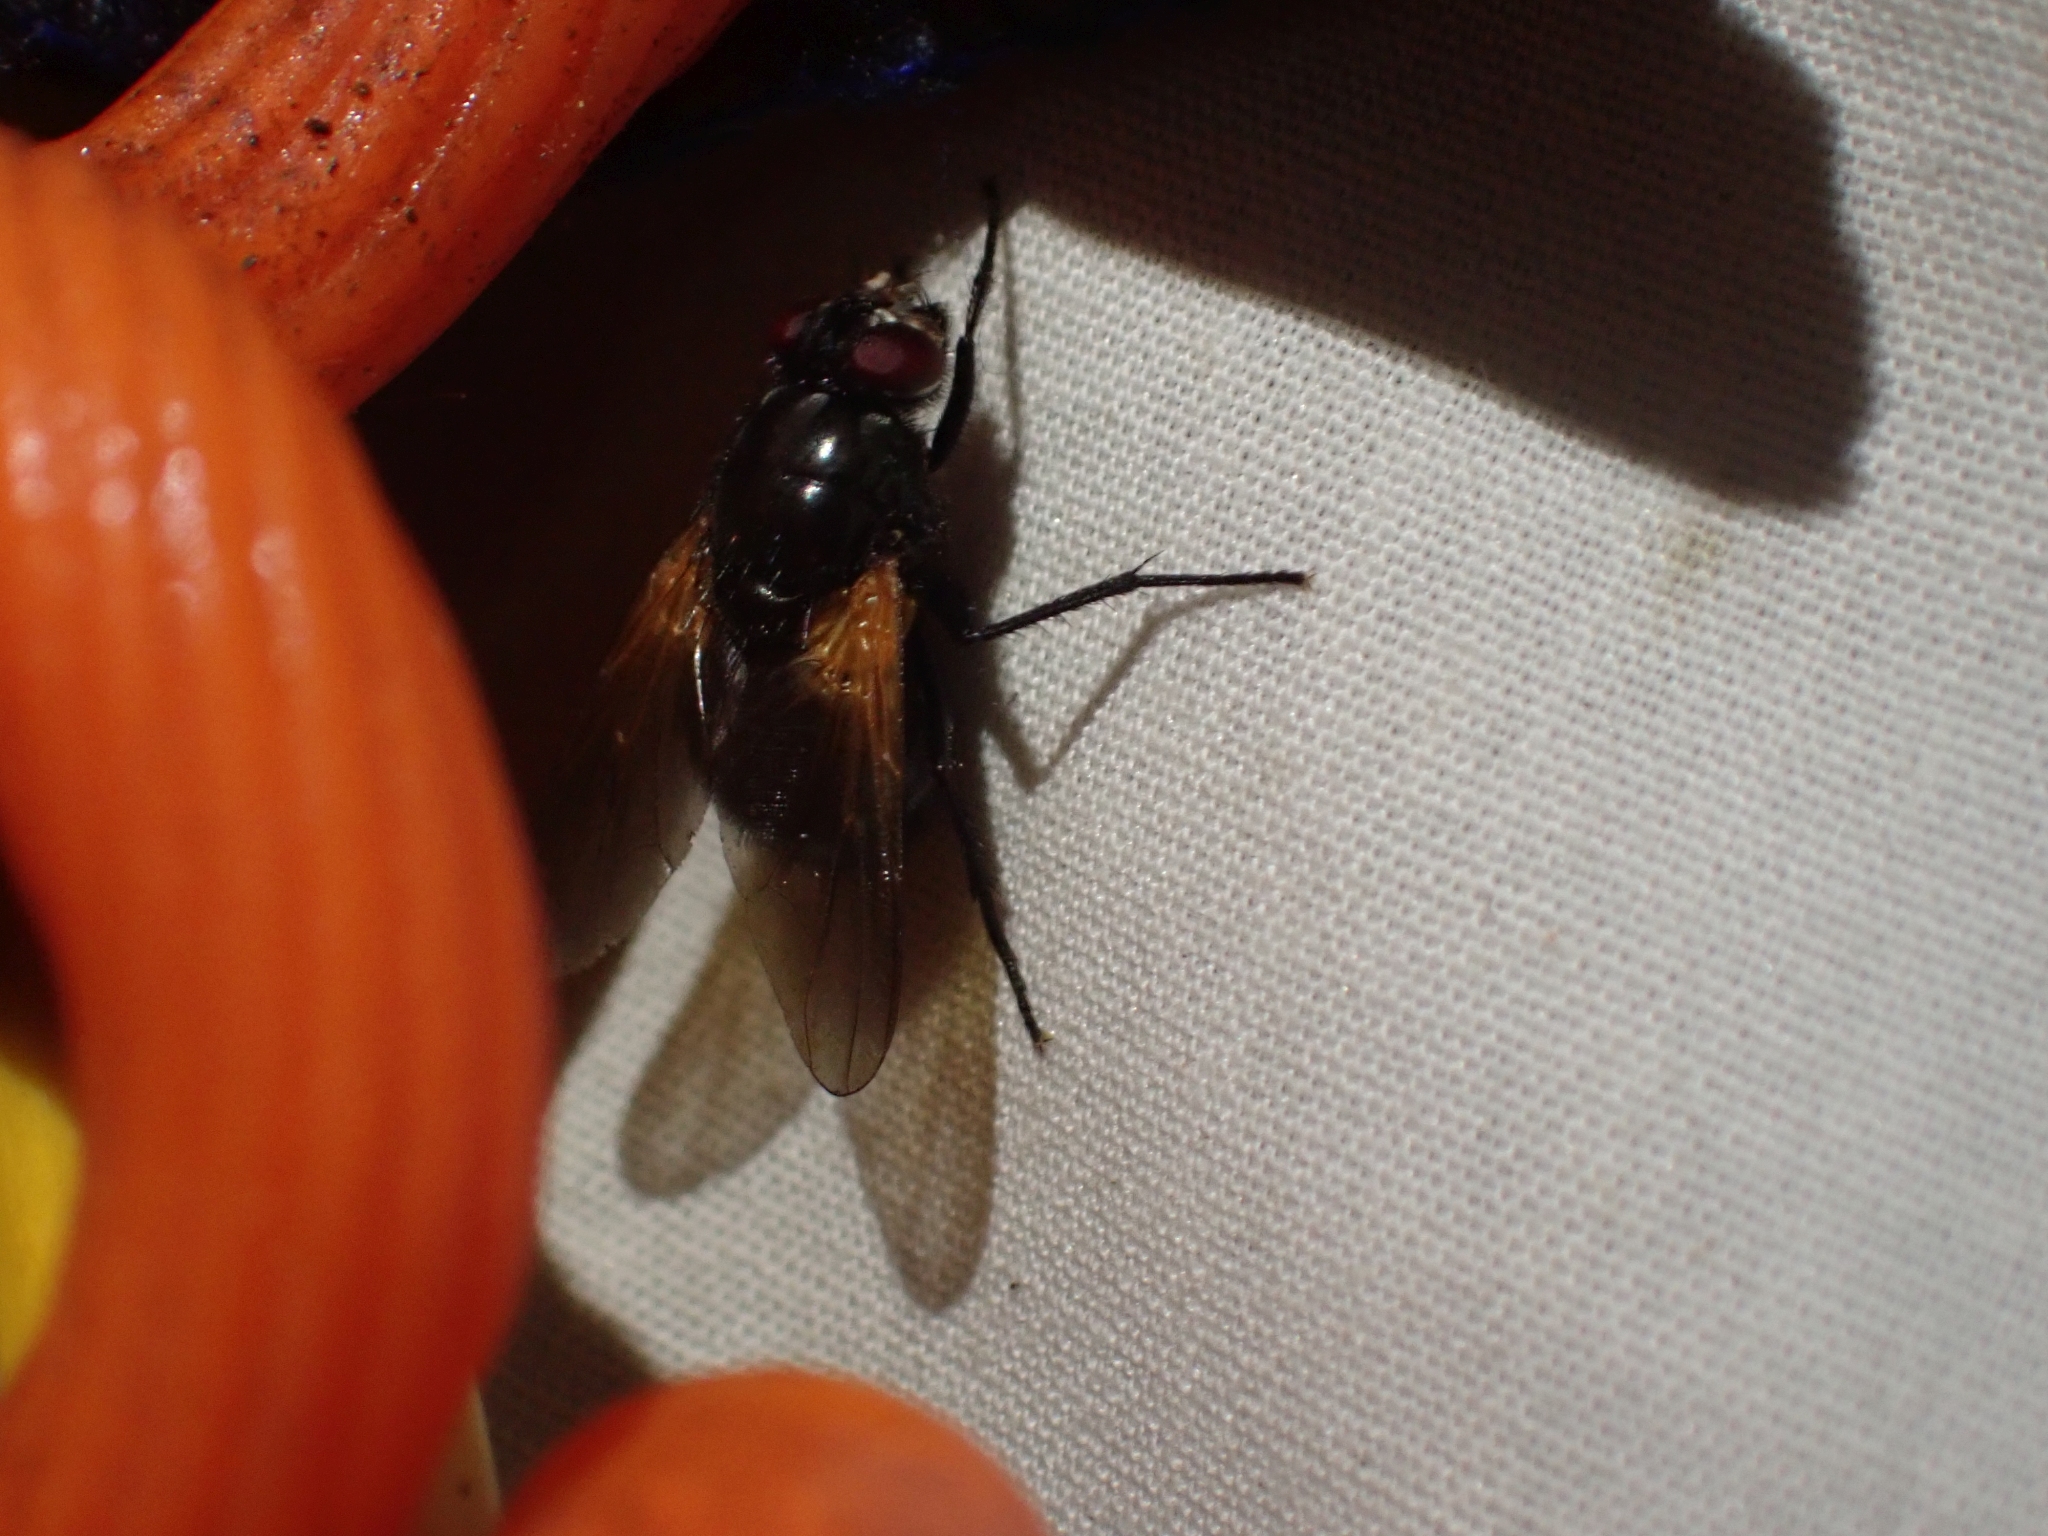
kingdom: Animalia
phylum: Arthropoda
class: Insecta
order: Diptera
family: Muscidae
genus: Mesembrina
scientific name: Mesembrina latreillii
